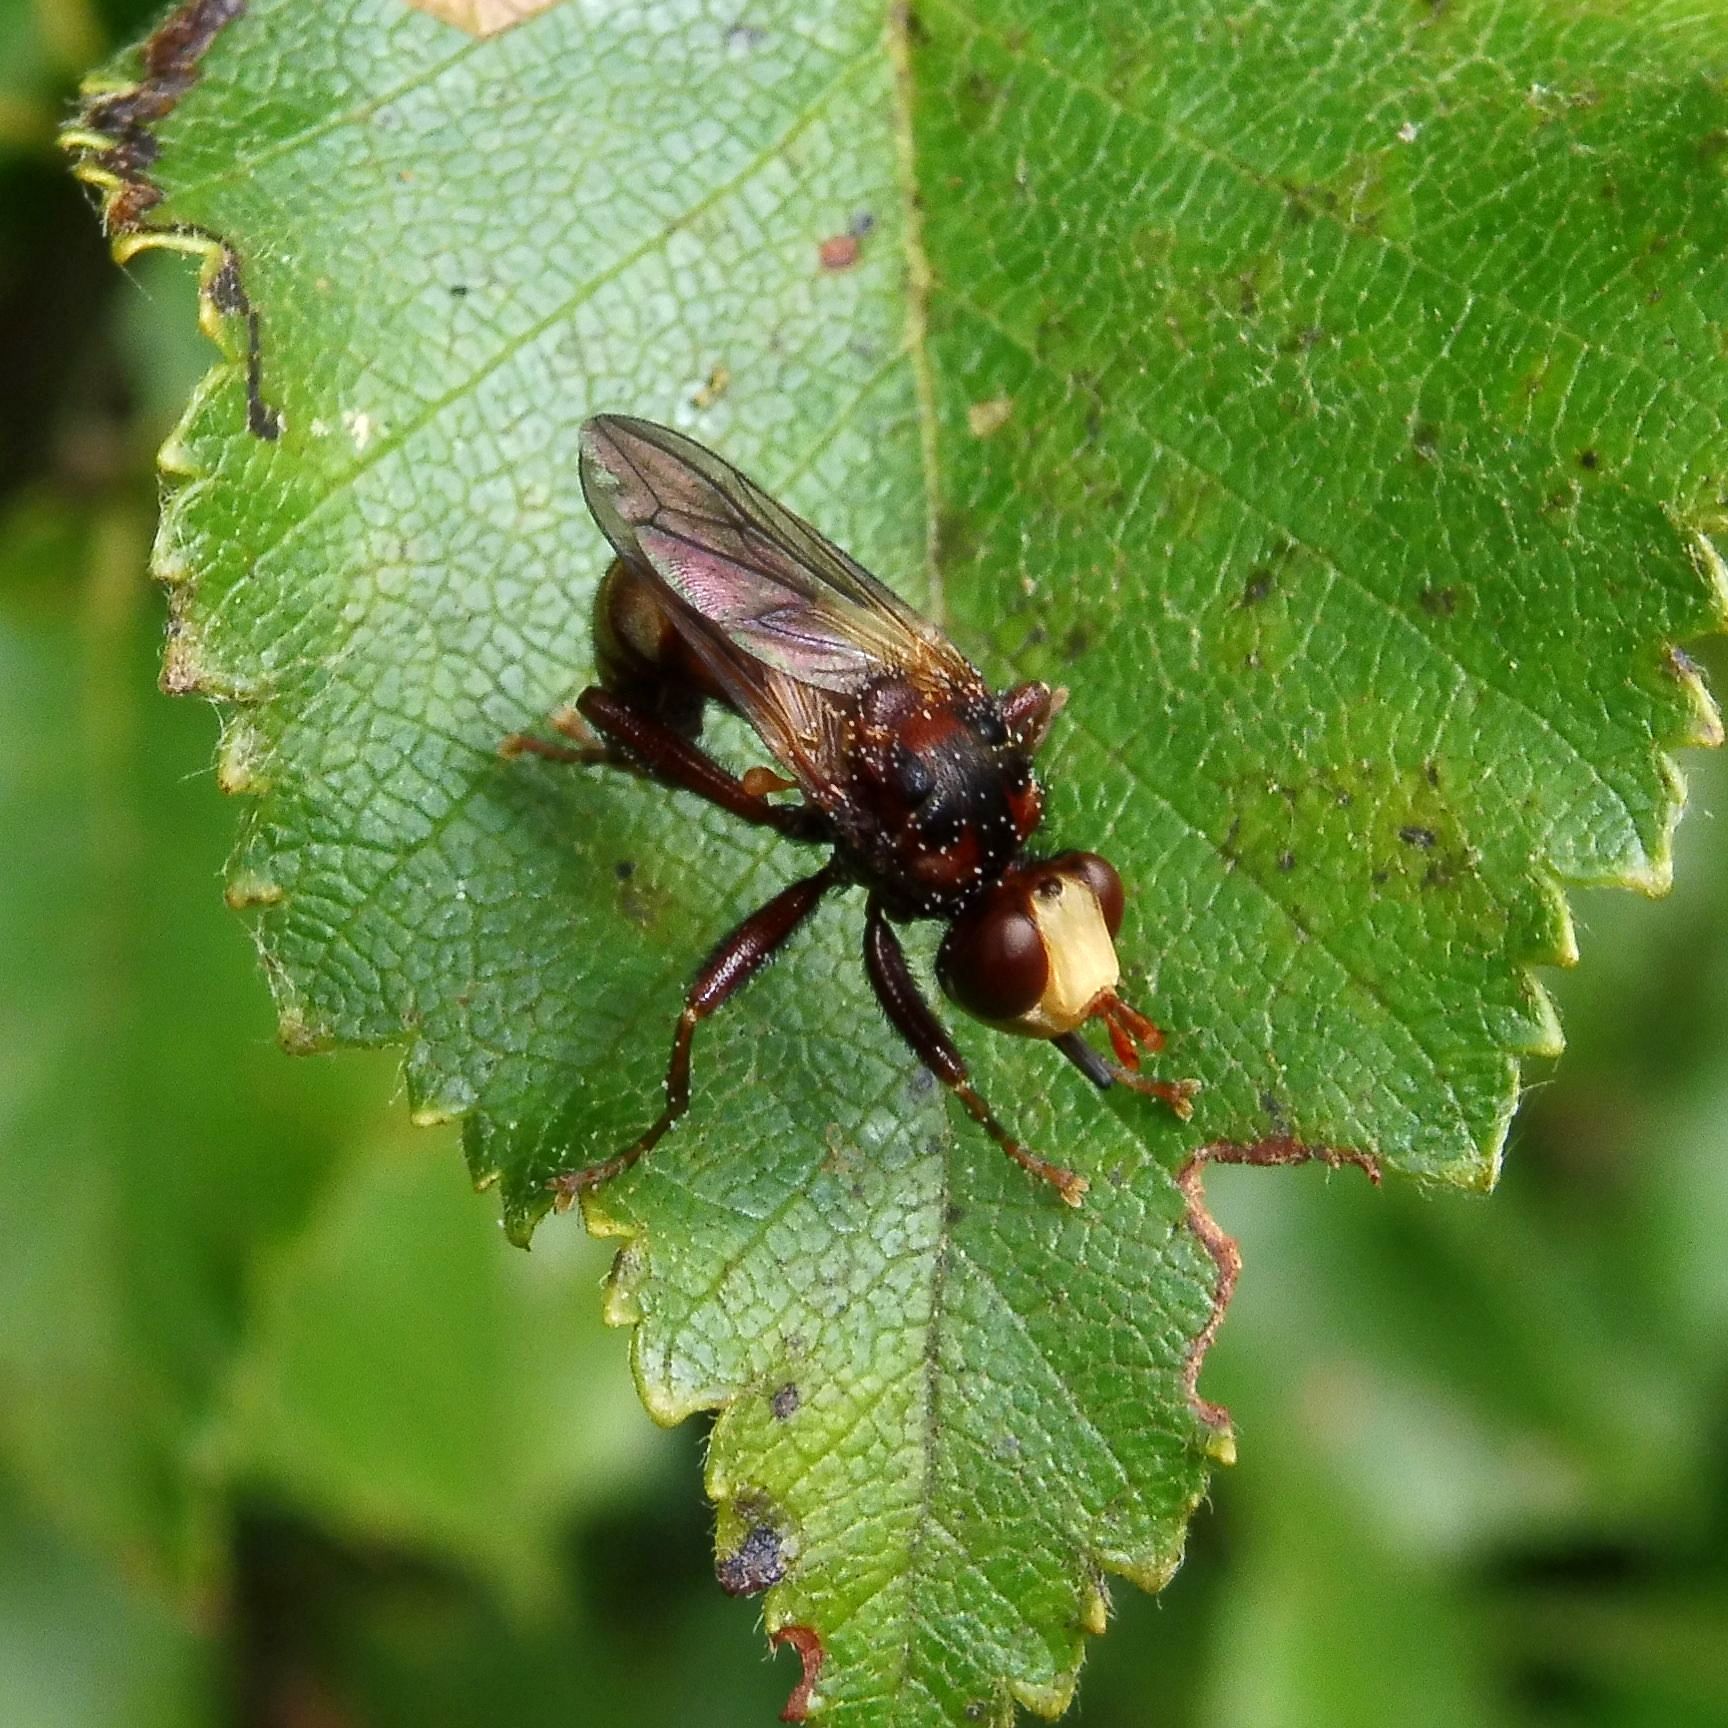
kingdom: Animalia
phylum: Arthropoda
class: Insecta
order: Diptera
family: Conopidae
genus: Sicus
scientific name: Sicus ferrugineus
